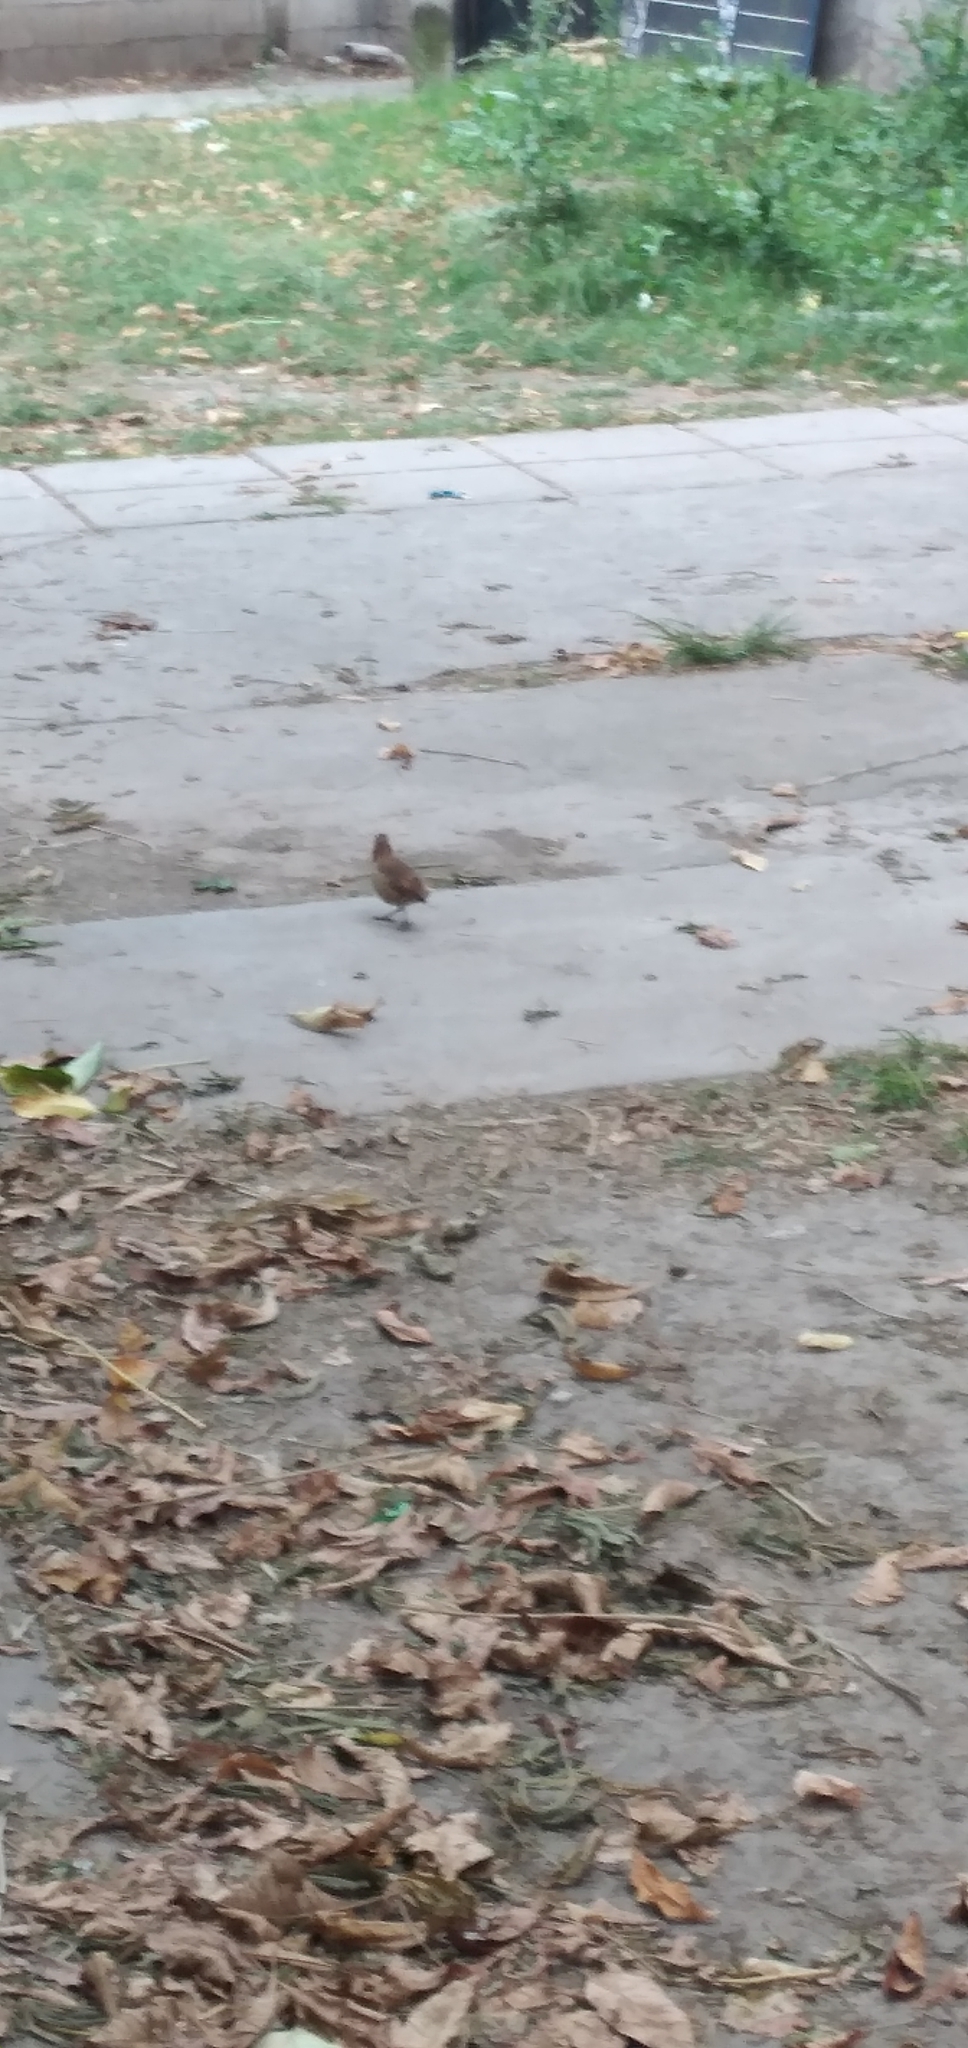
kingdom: Animalia
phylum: Chordata
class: Aves
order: Passeriformes
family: Furnariidae
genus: Furnarius
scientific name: Furnarius rufus
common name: Rufous hornero
